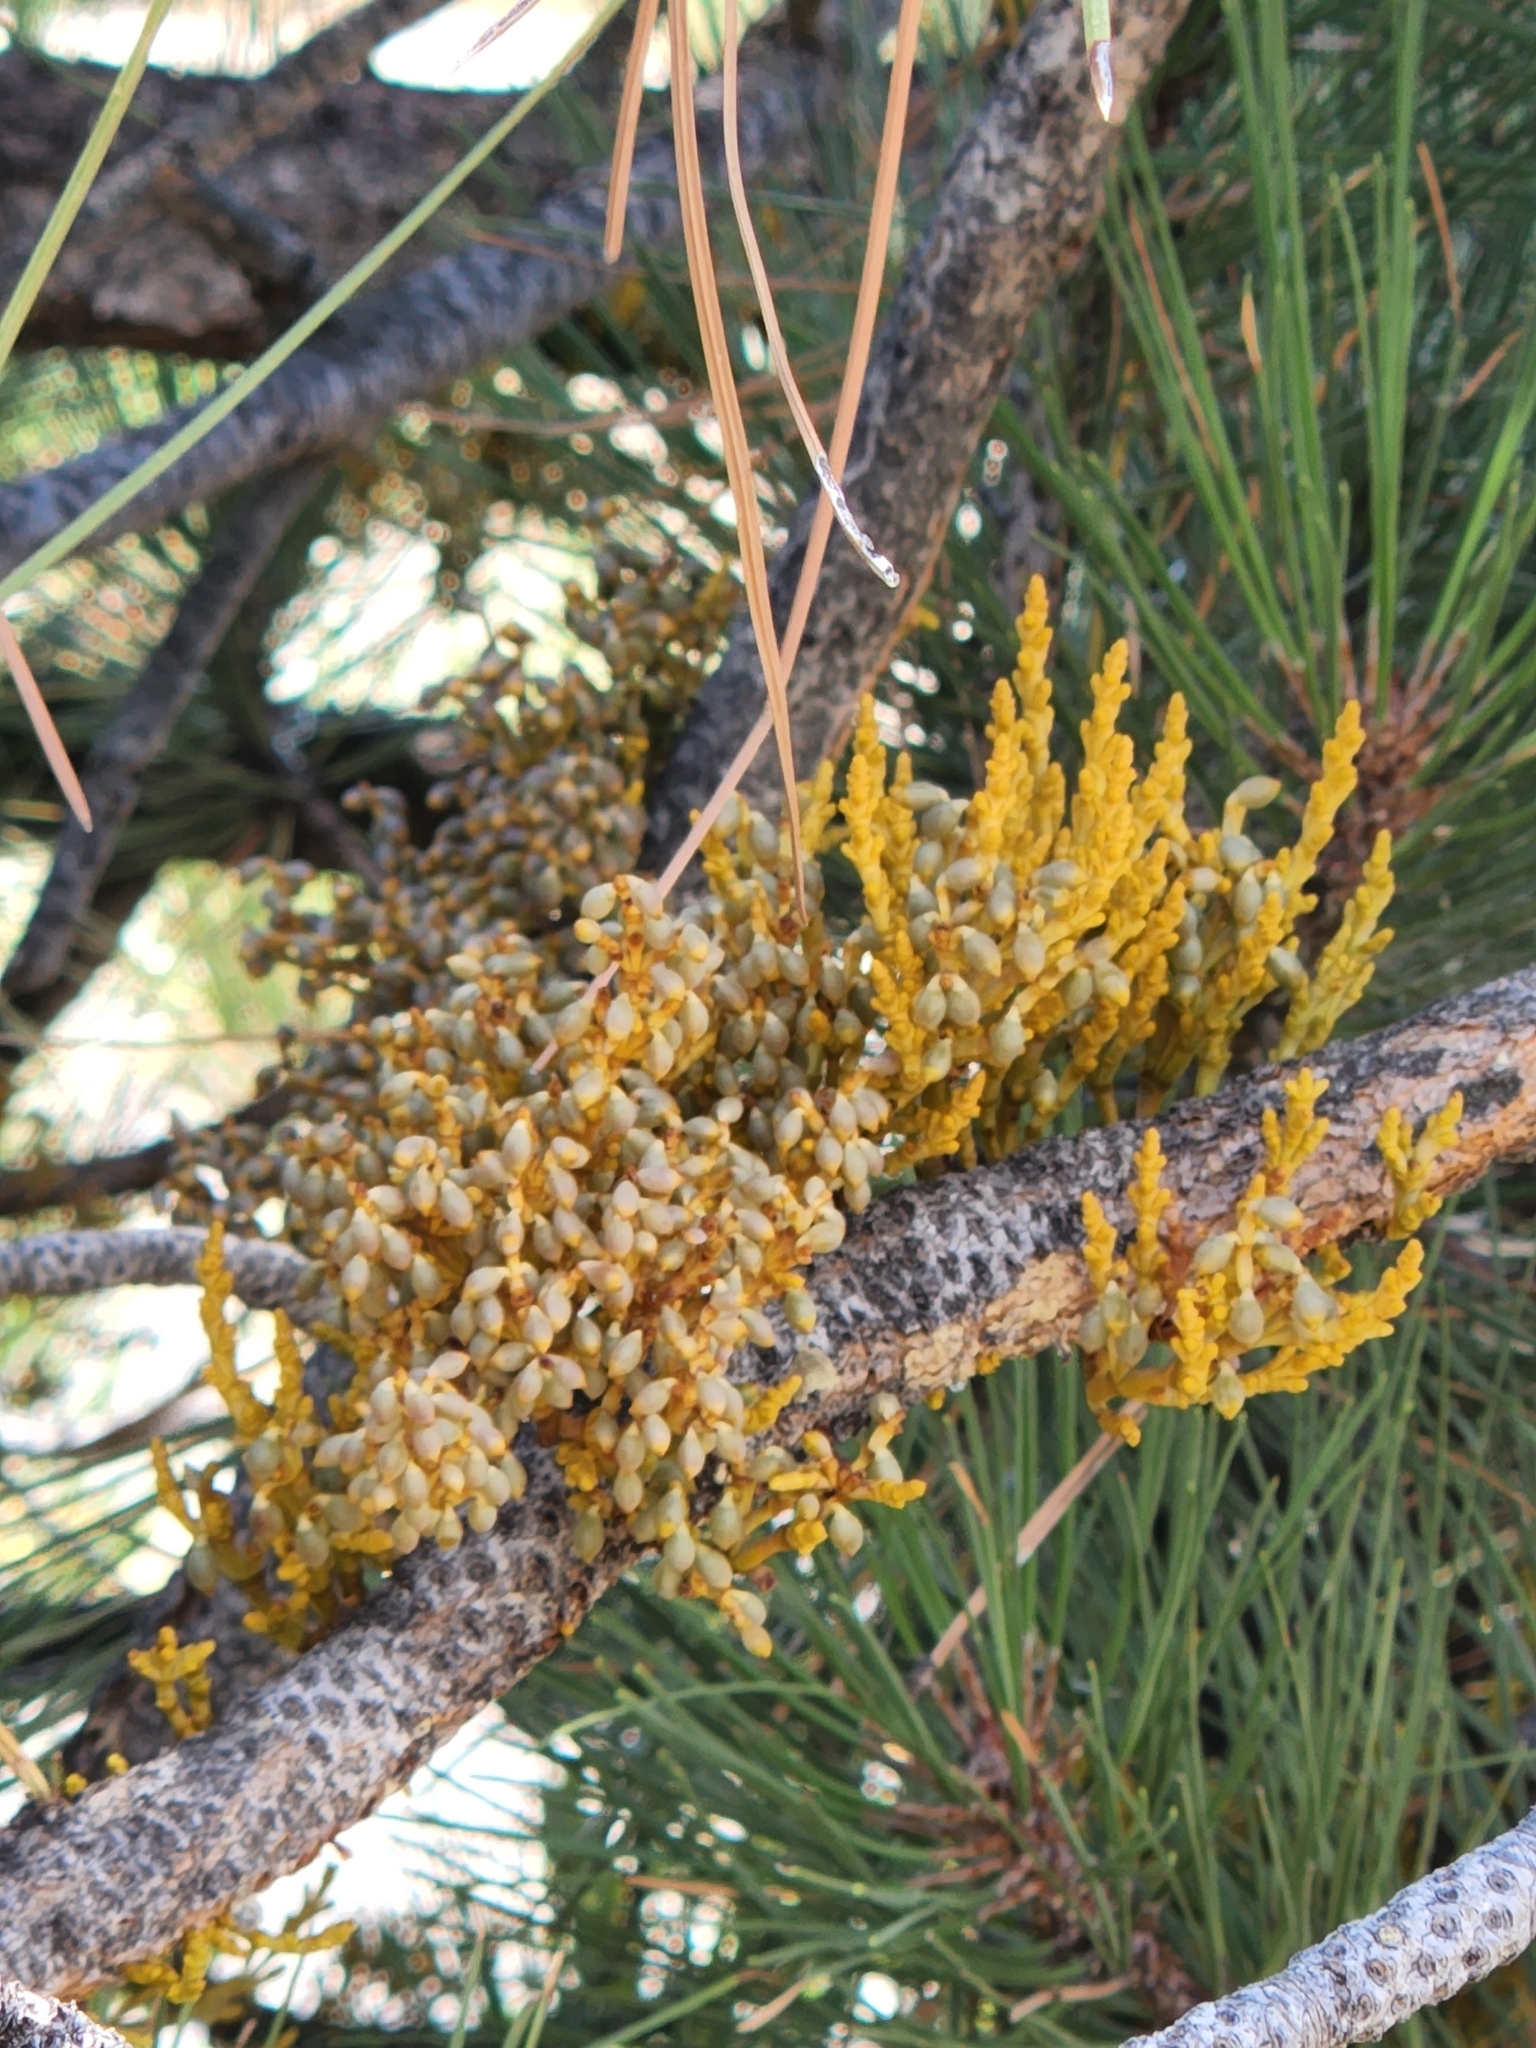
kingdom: Plantae
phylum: Tracheophyta
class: Magnoliopsida
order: Santalales
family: Viscaceae
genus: Arceuthobium
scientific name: Arceuthobium campylopodum
